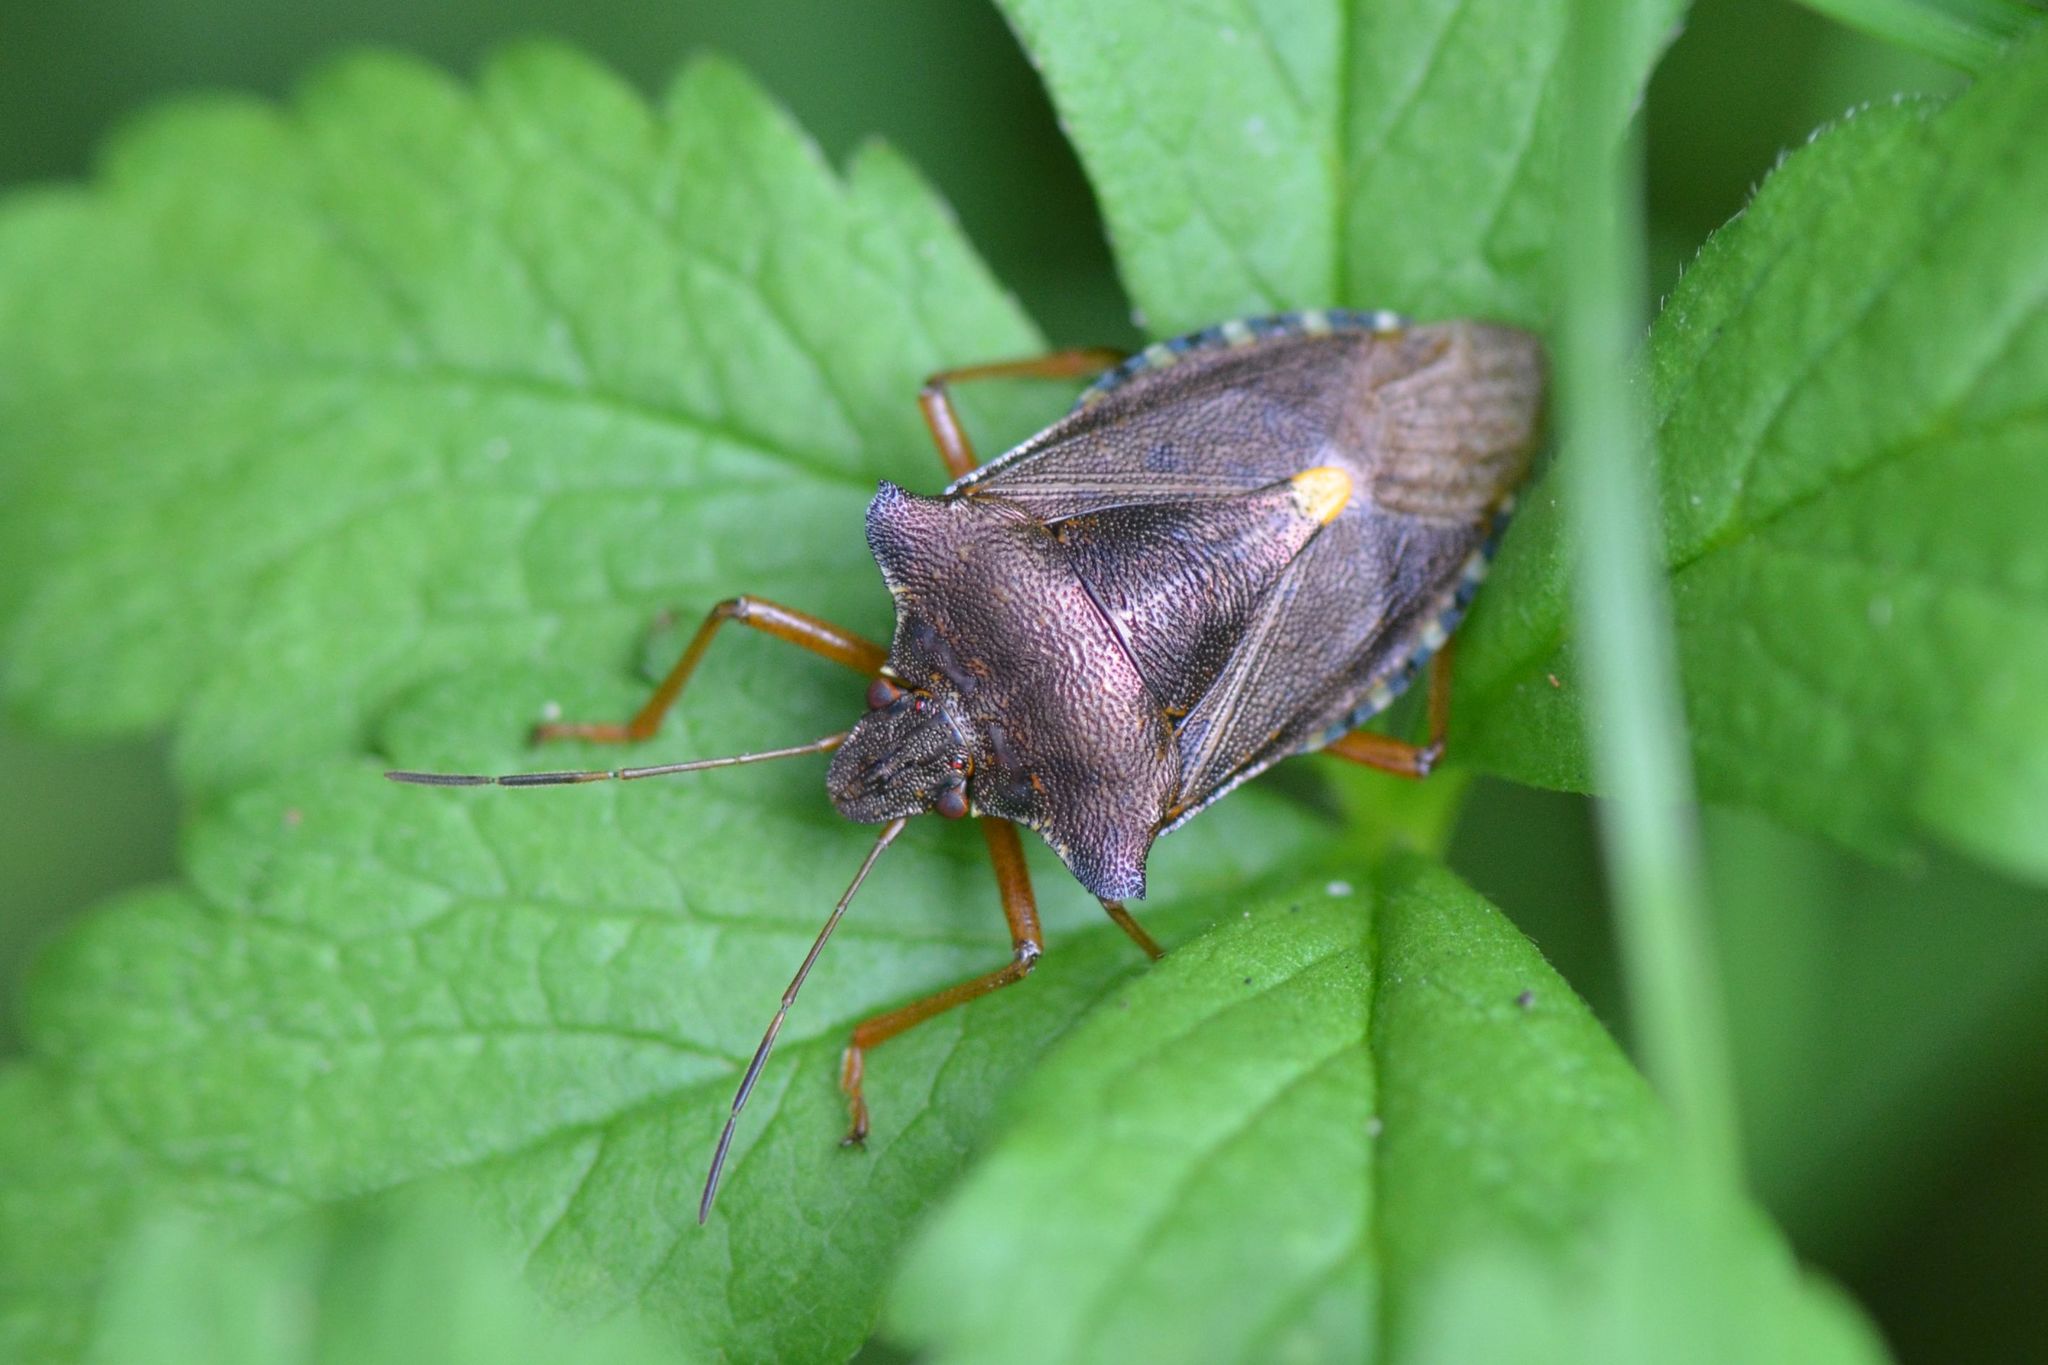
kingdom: Animalia
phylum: Arthropoda
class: Insecta
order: Hemiptera
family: Pentatomidae
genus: Pentatoma
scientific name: Pentatoma rufipes
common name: Forest bug
